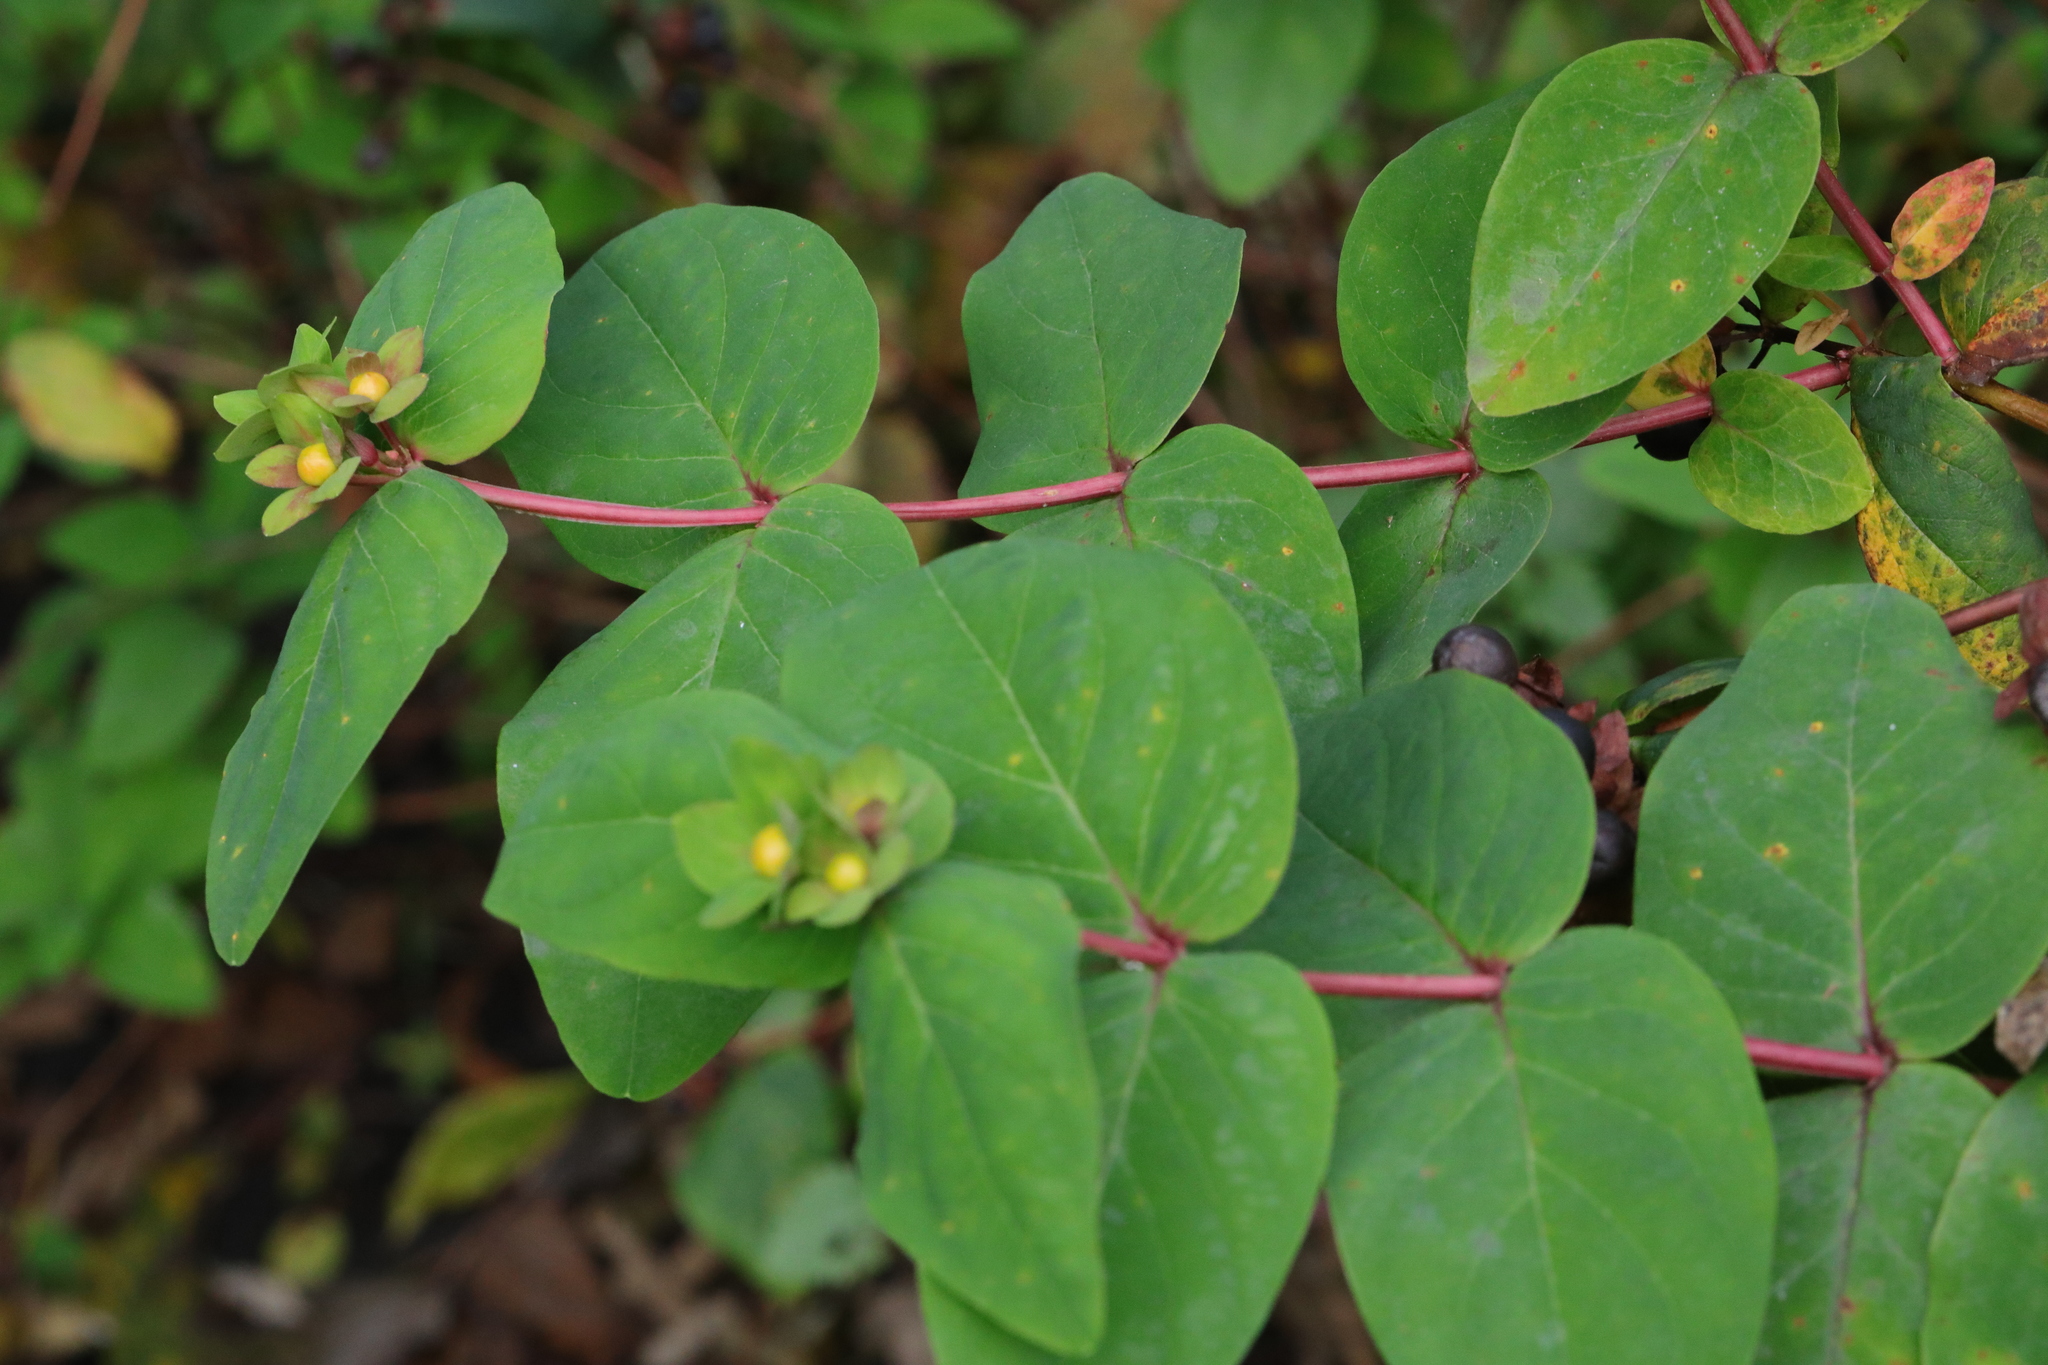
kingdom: Plantae
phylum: Tracheophyta
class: Magnoliopsida
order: Malpighiales
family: Hypericaceae
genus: Hypericum
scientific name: Hypericum androsaemum
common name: Sweet-amber
